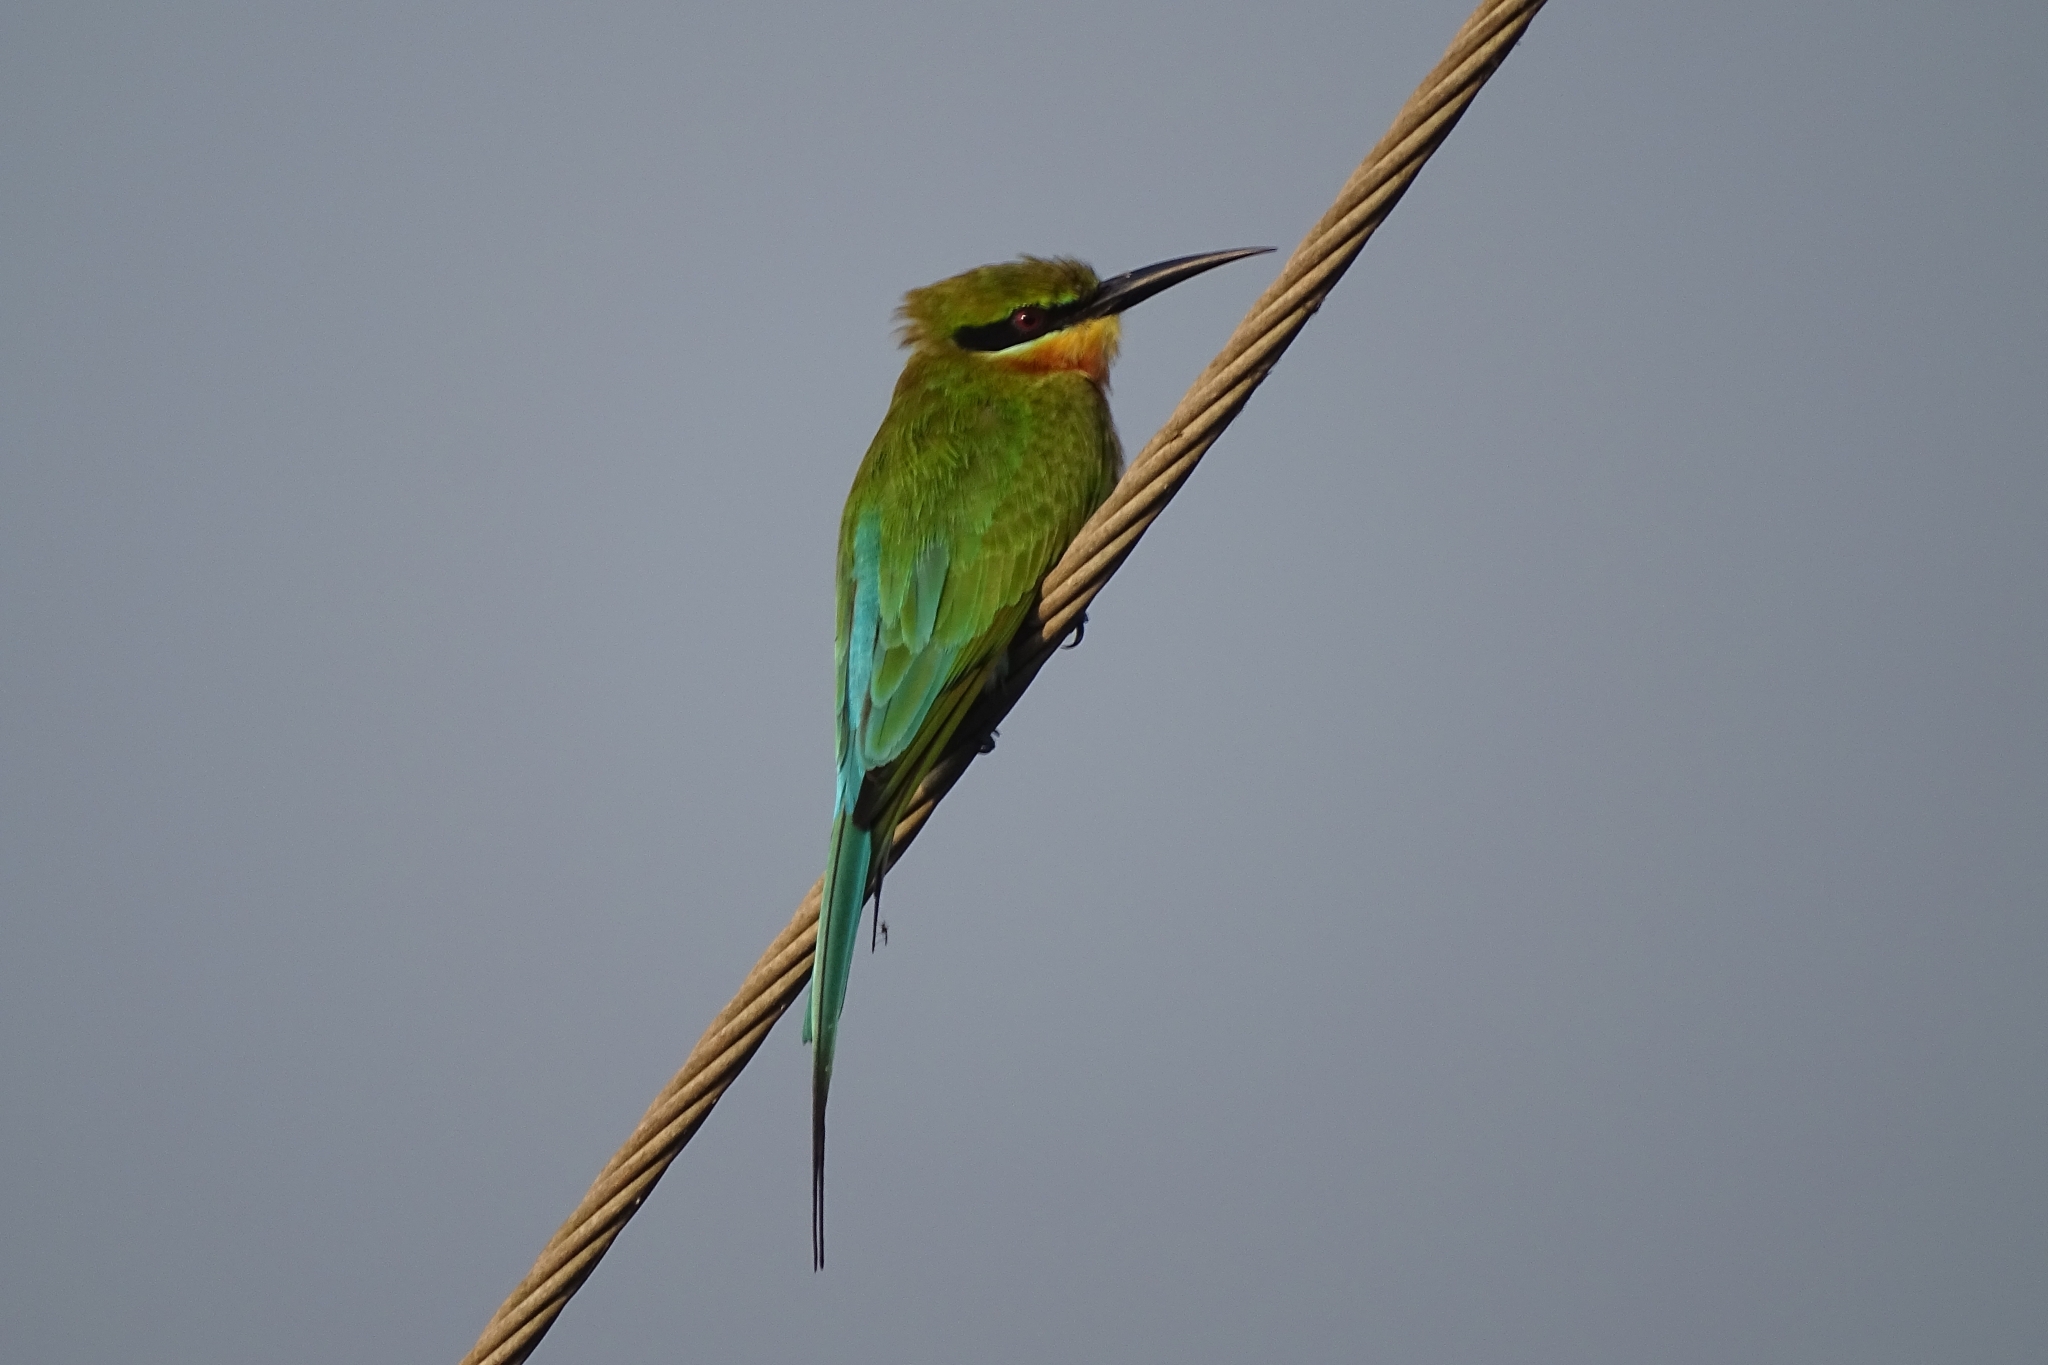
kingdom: Animalia
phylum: Chordata
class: Aves
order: Coraciiformes
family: Meropidae
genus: Merops
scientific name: Merops philippinus
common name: Blue-tailed bee-eater
